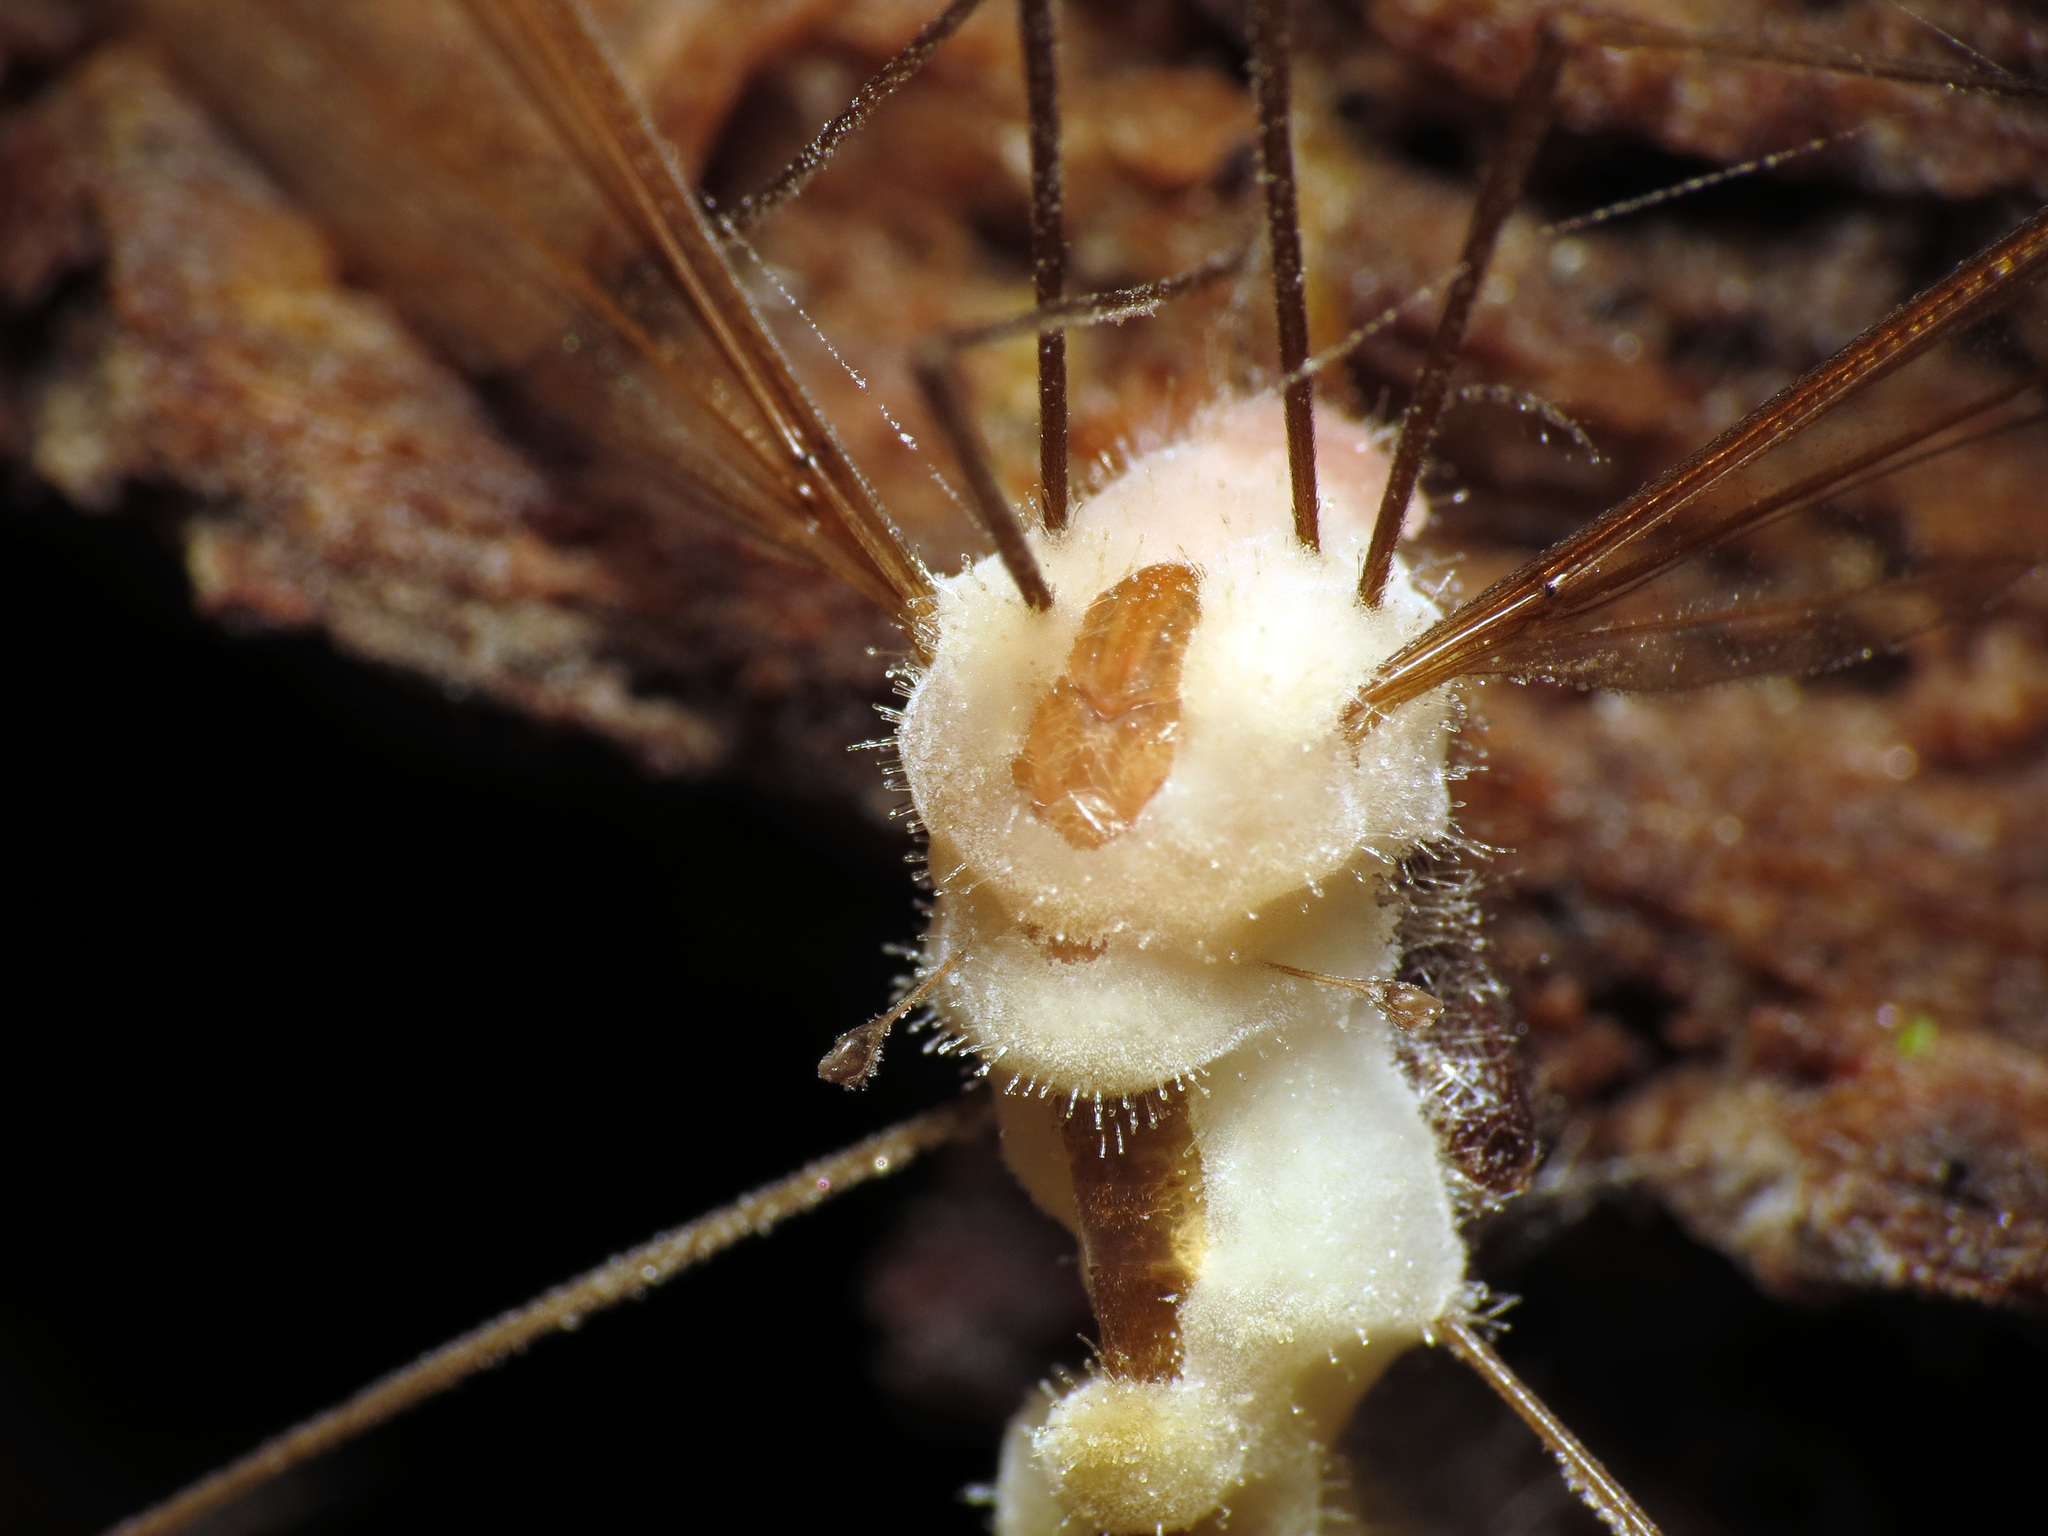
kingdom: Fungi
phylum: Entomophthoromycota
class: Entomophthoromycetes
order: Entomophthorales
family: Entomophthoraceae
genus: Erynia
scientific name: Erynia sepulchralis
